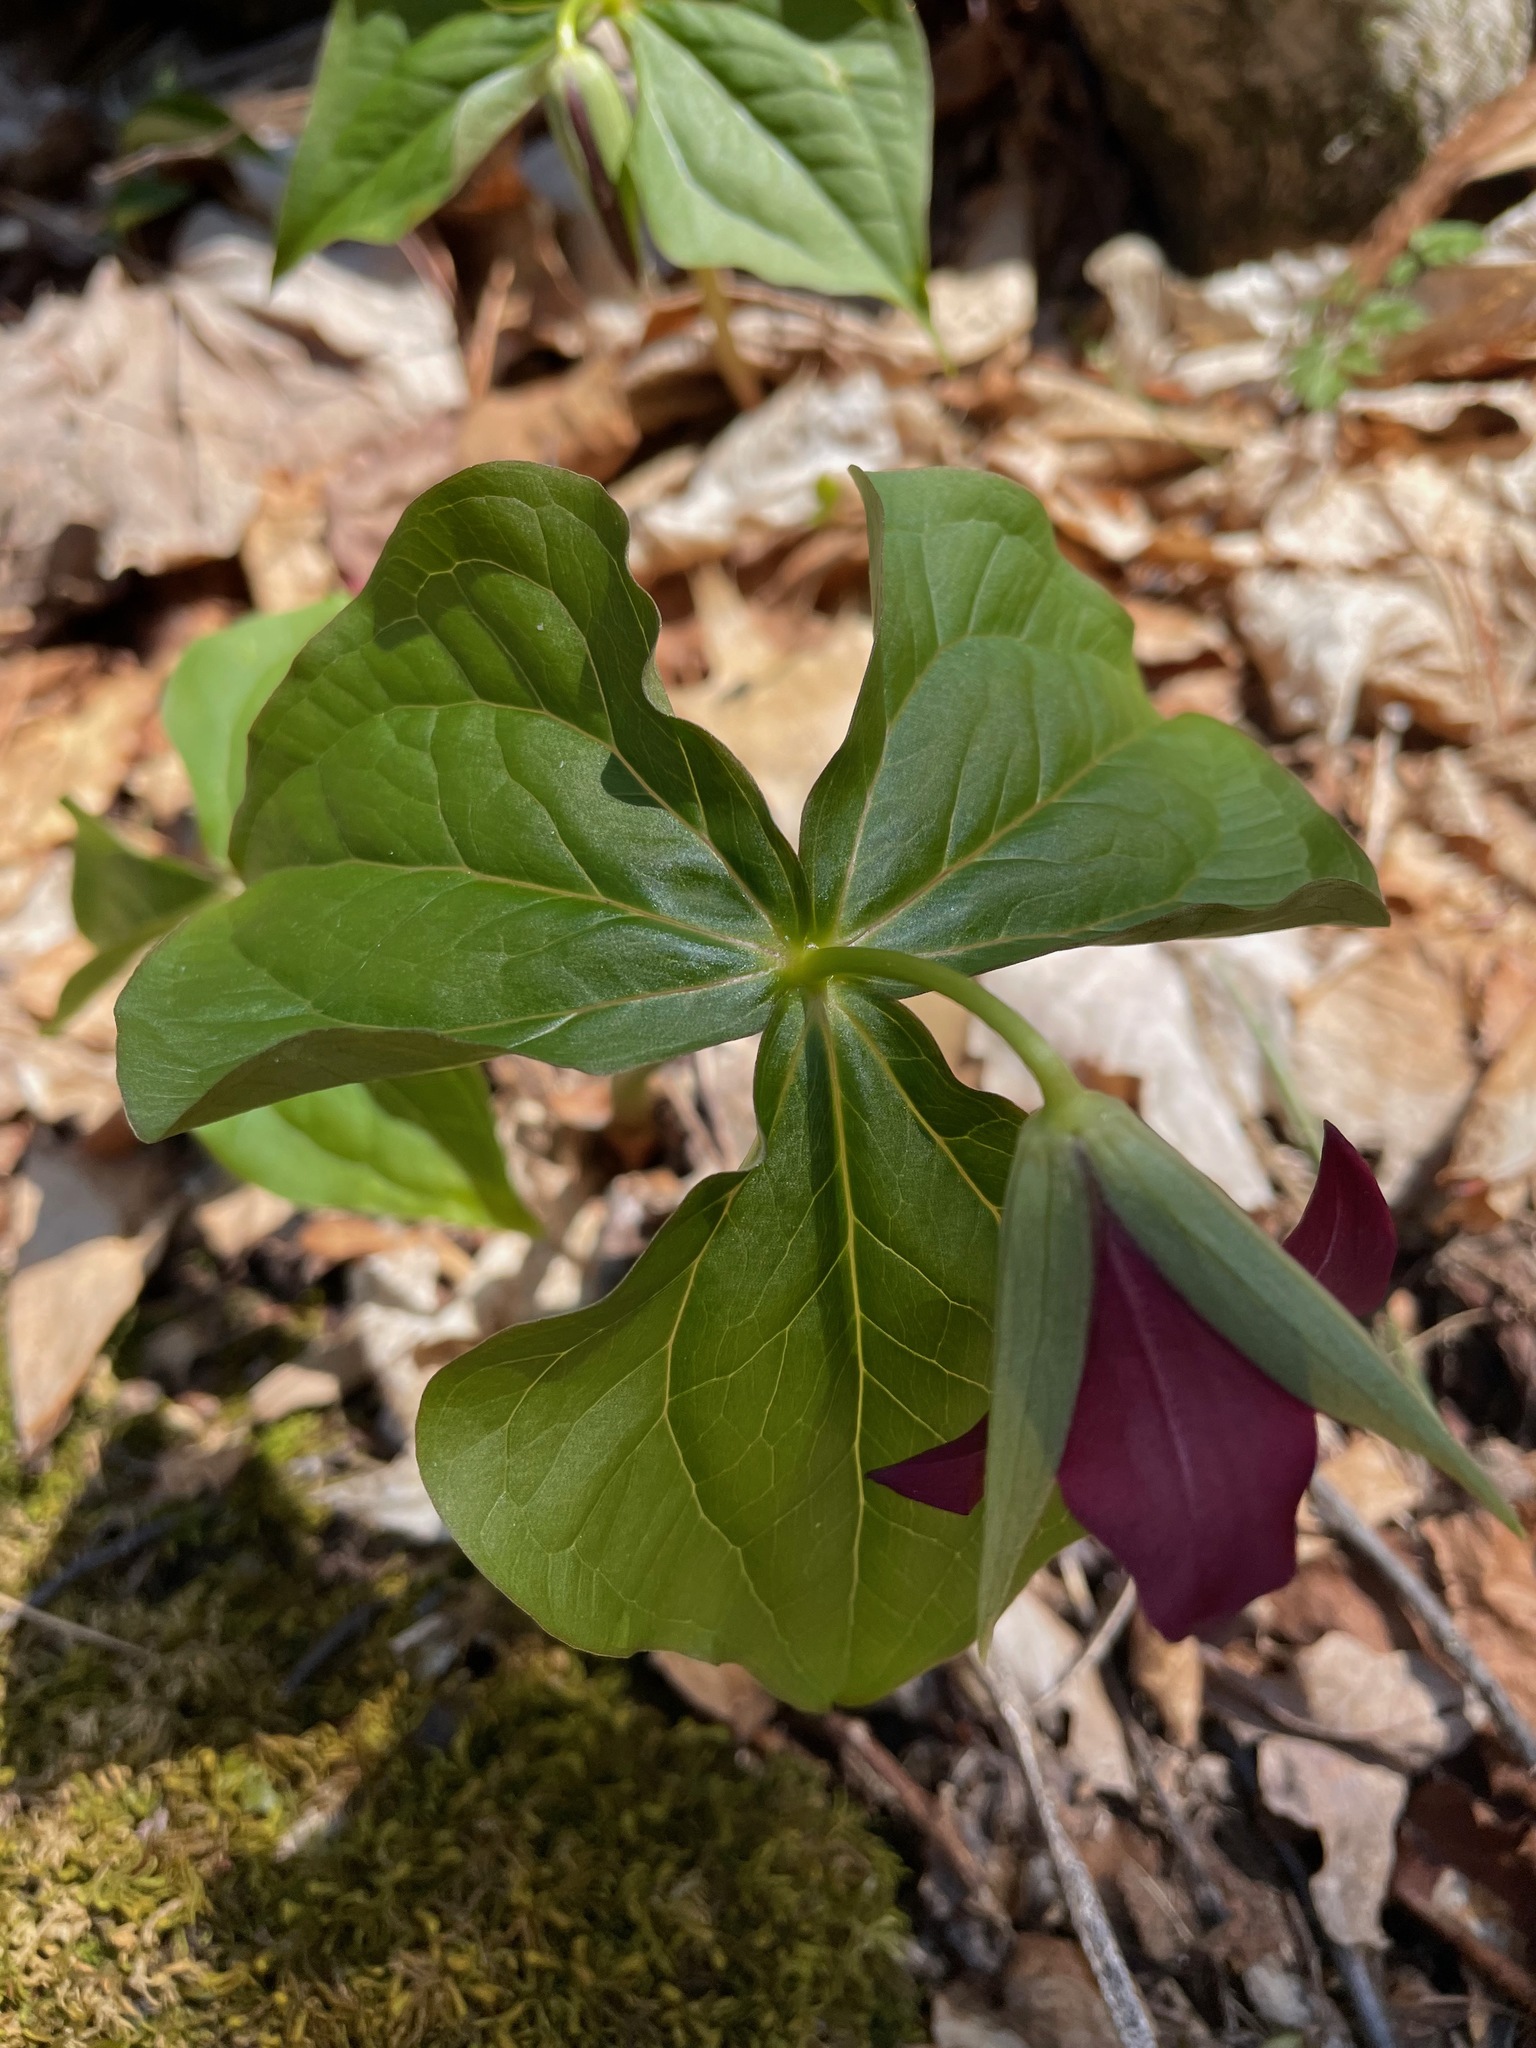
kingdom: Plantae
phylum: Tracheophyta
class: Liliopsida
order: Liliales
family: Melanthiaceae
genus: Trillium
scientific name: Trillium erectum
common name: Purple trillium
